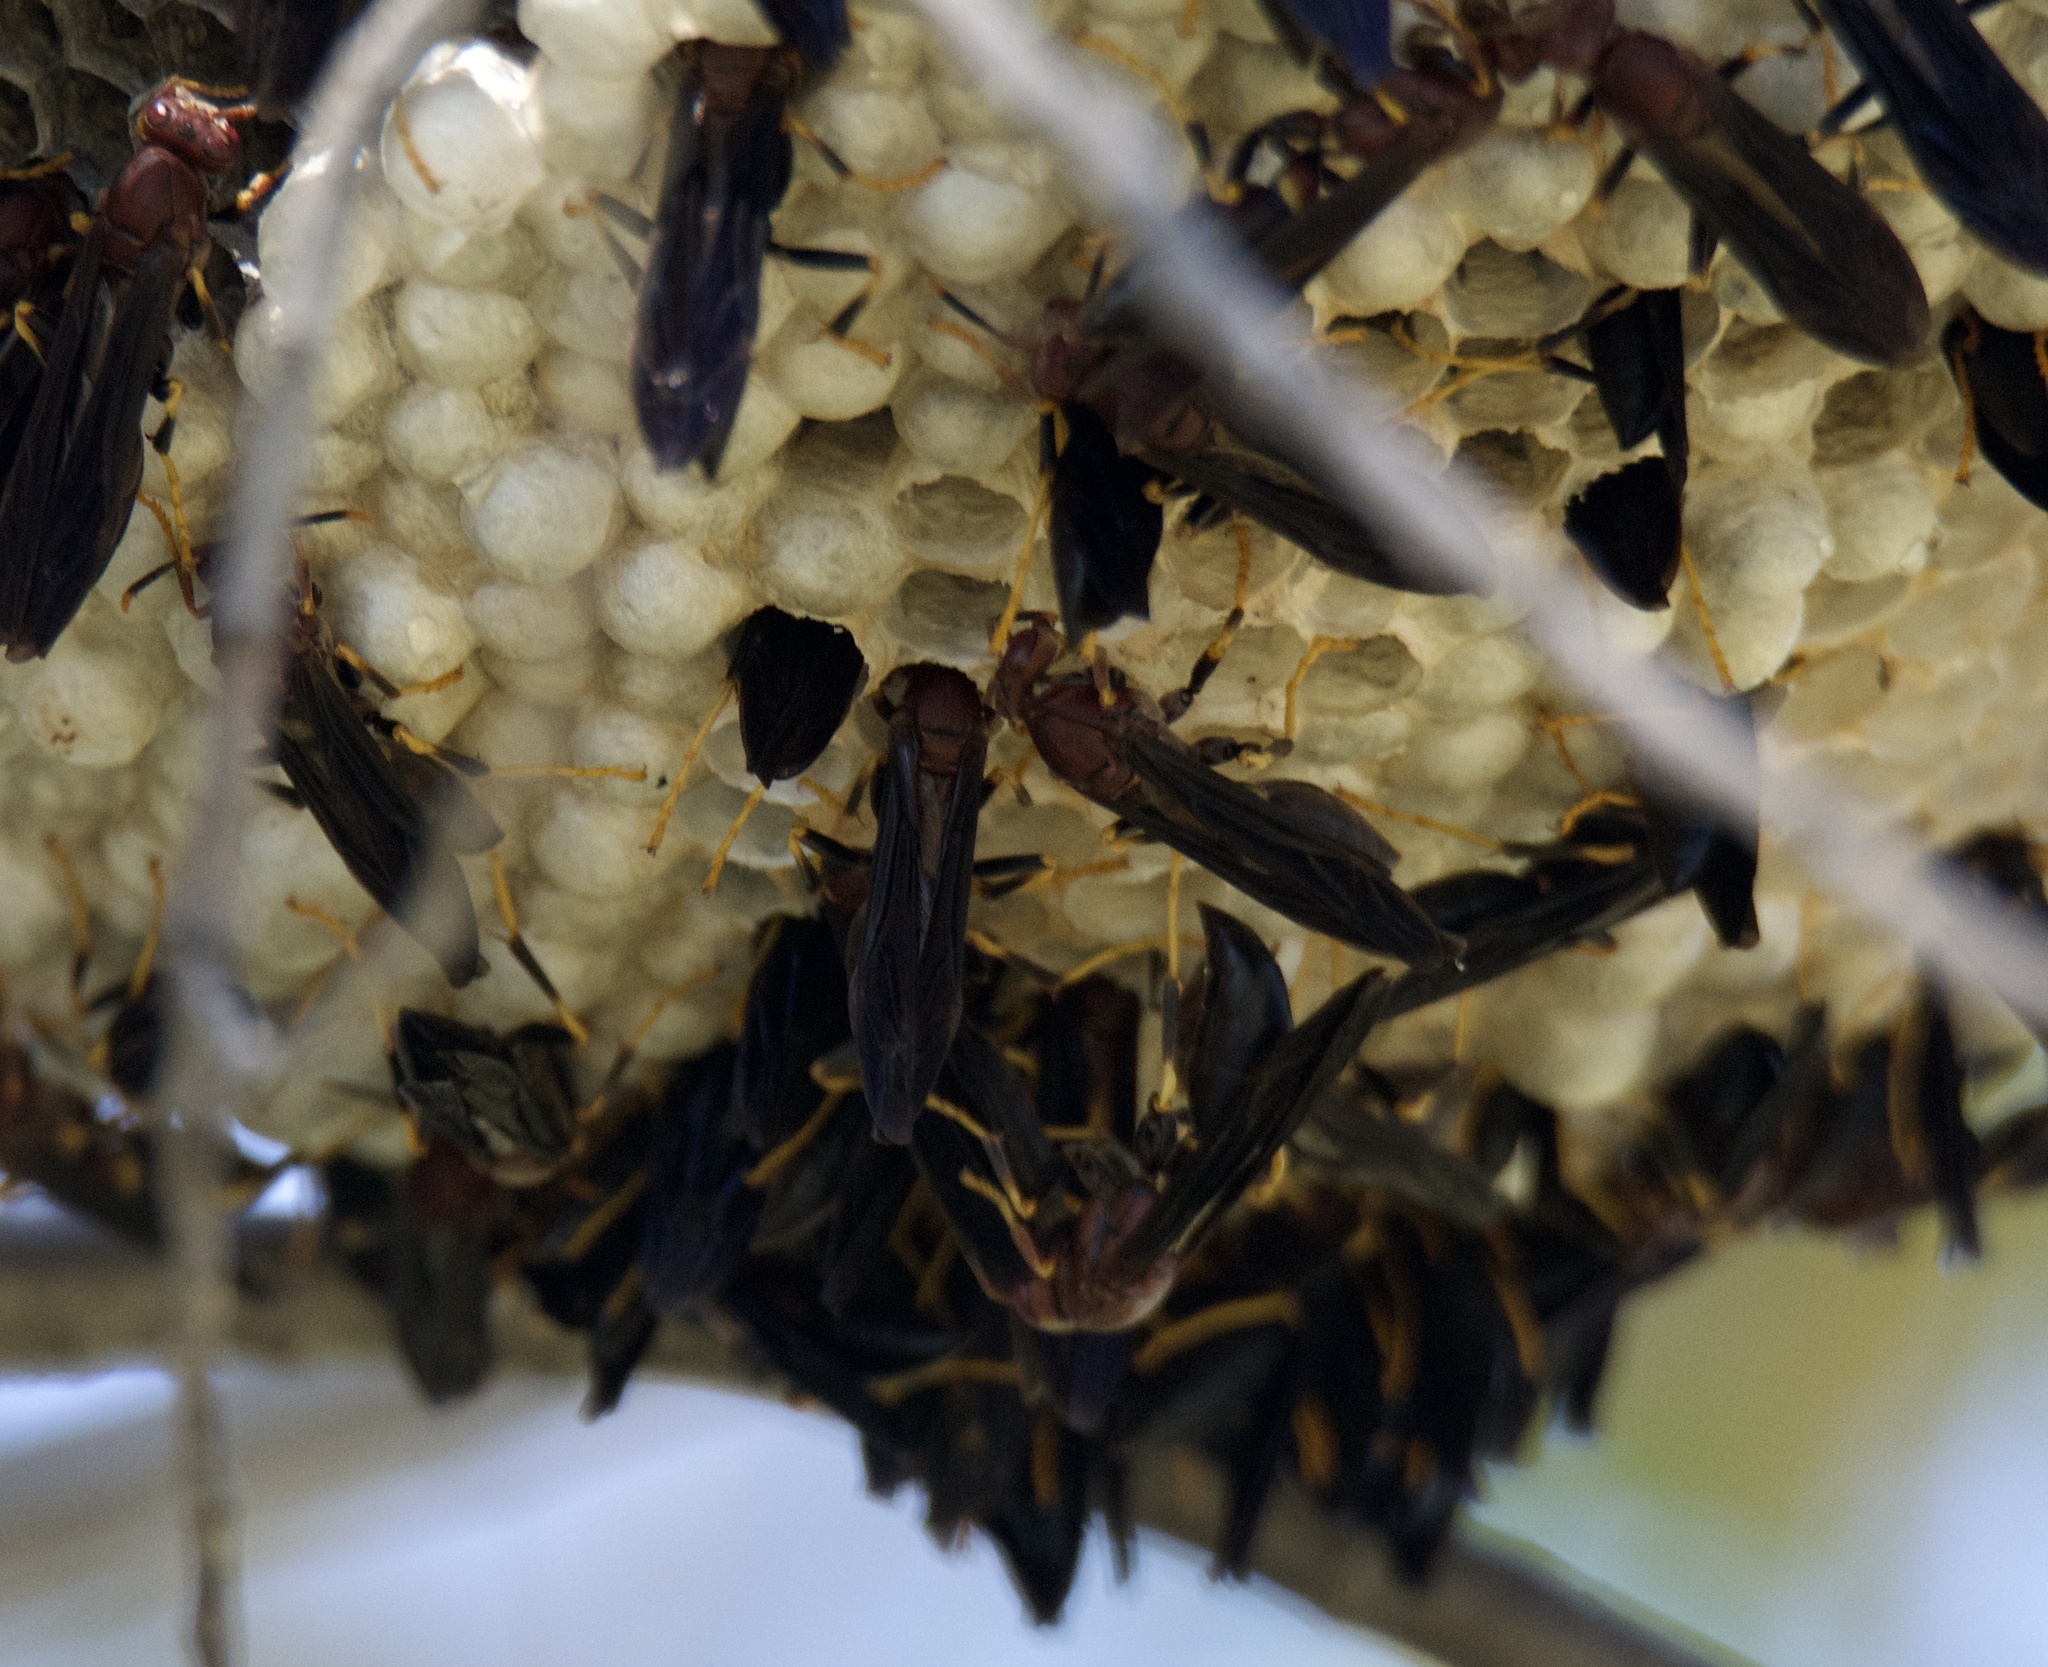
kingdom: Animalia
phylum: Arthropoda
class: Insecta
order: Hymenoptera
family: Eumenidae
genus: Polistes
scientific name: Polistes annularis
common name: Ringed paper wasp
